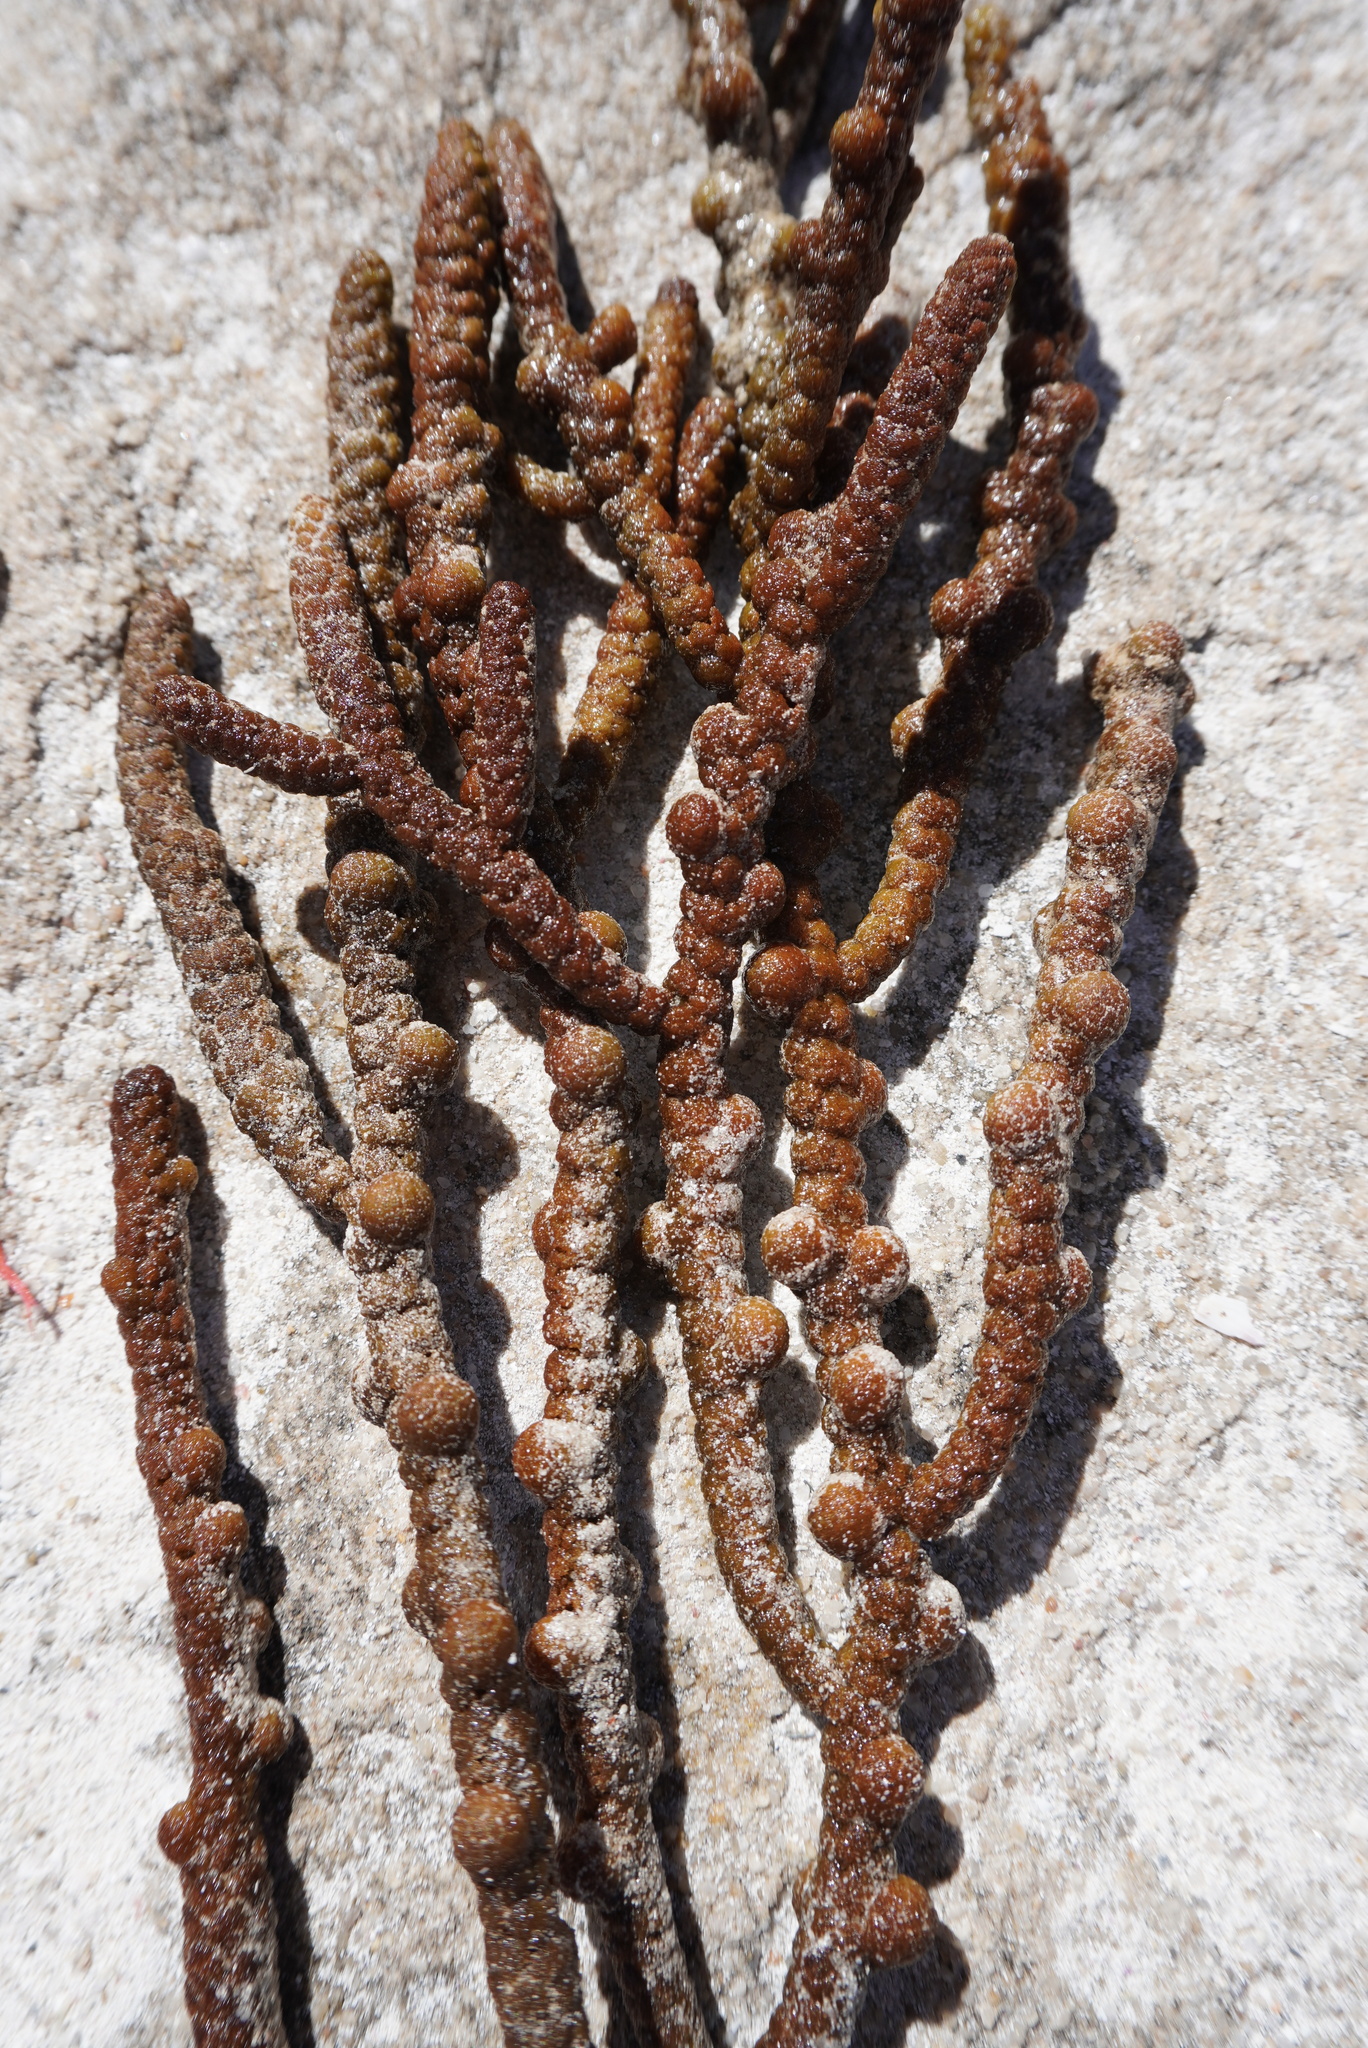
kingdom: Chromista
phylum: Ochrophyta
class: Phaeophyceae
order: Fucales
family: Sargassaceae
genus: Scaberia
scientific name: Scaberia agardhii
